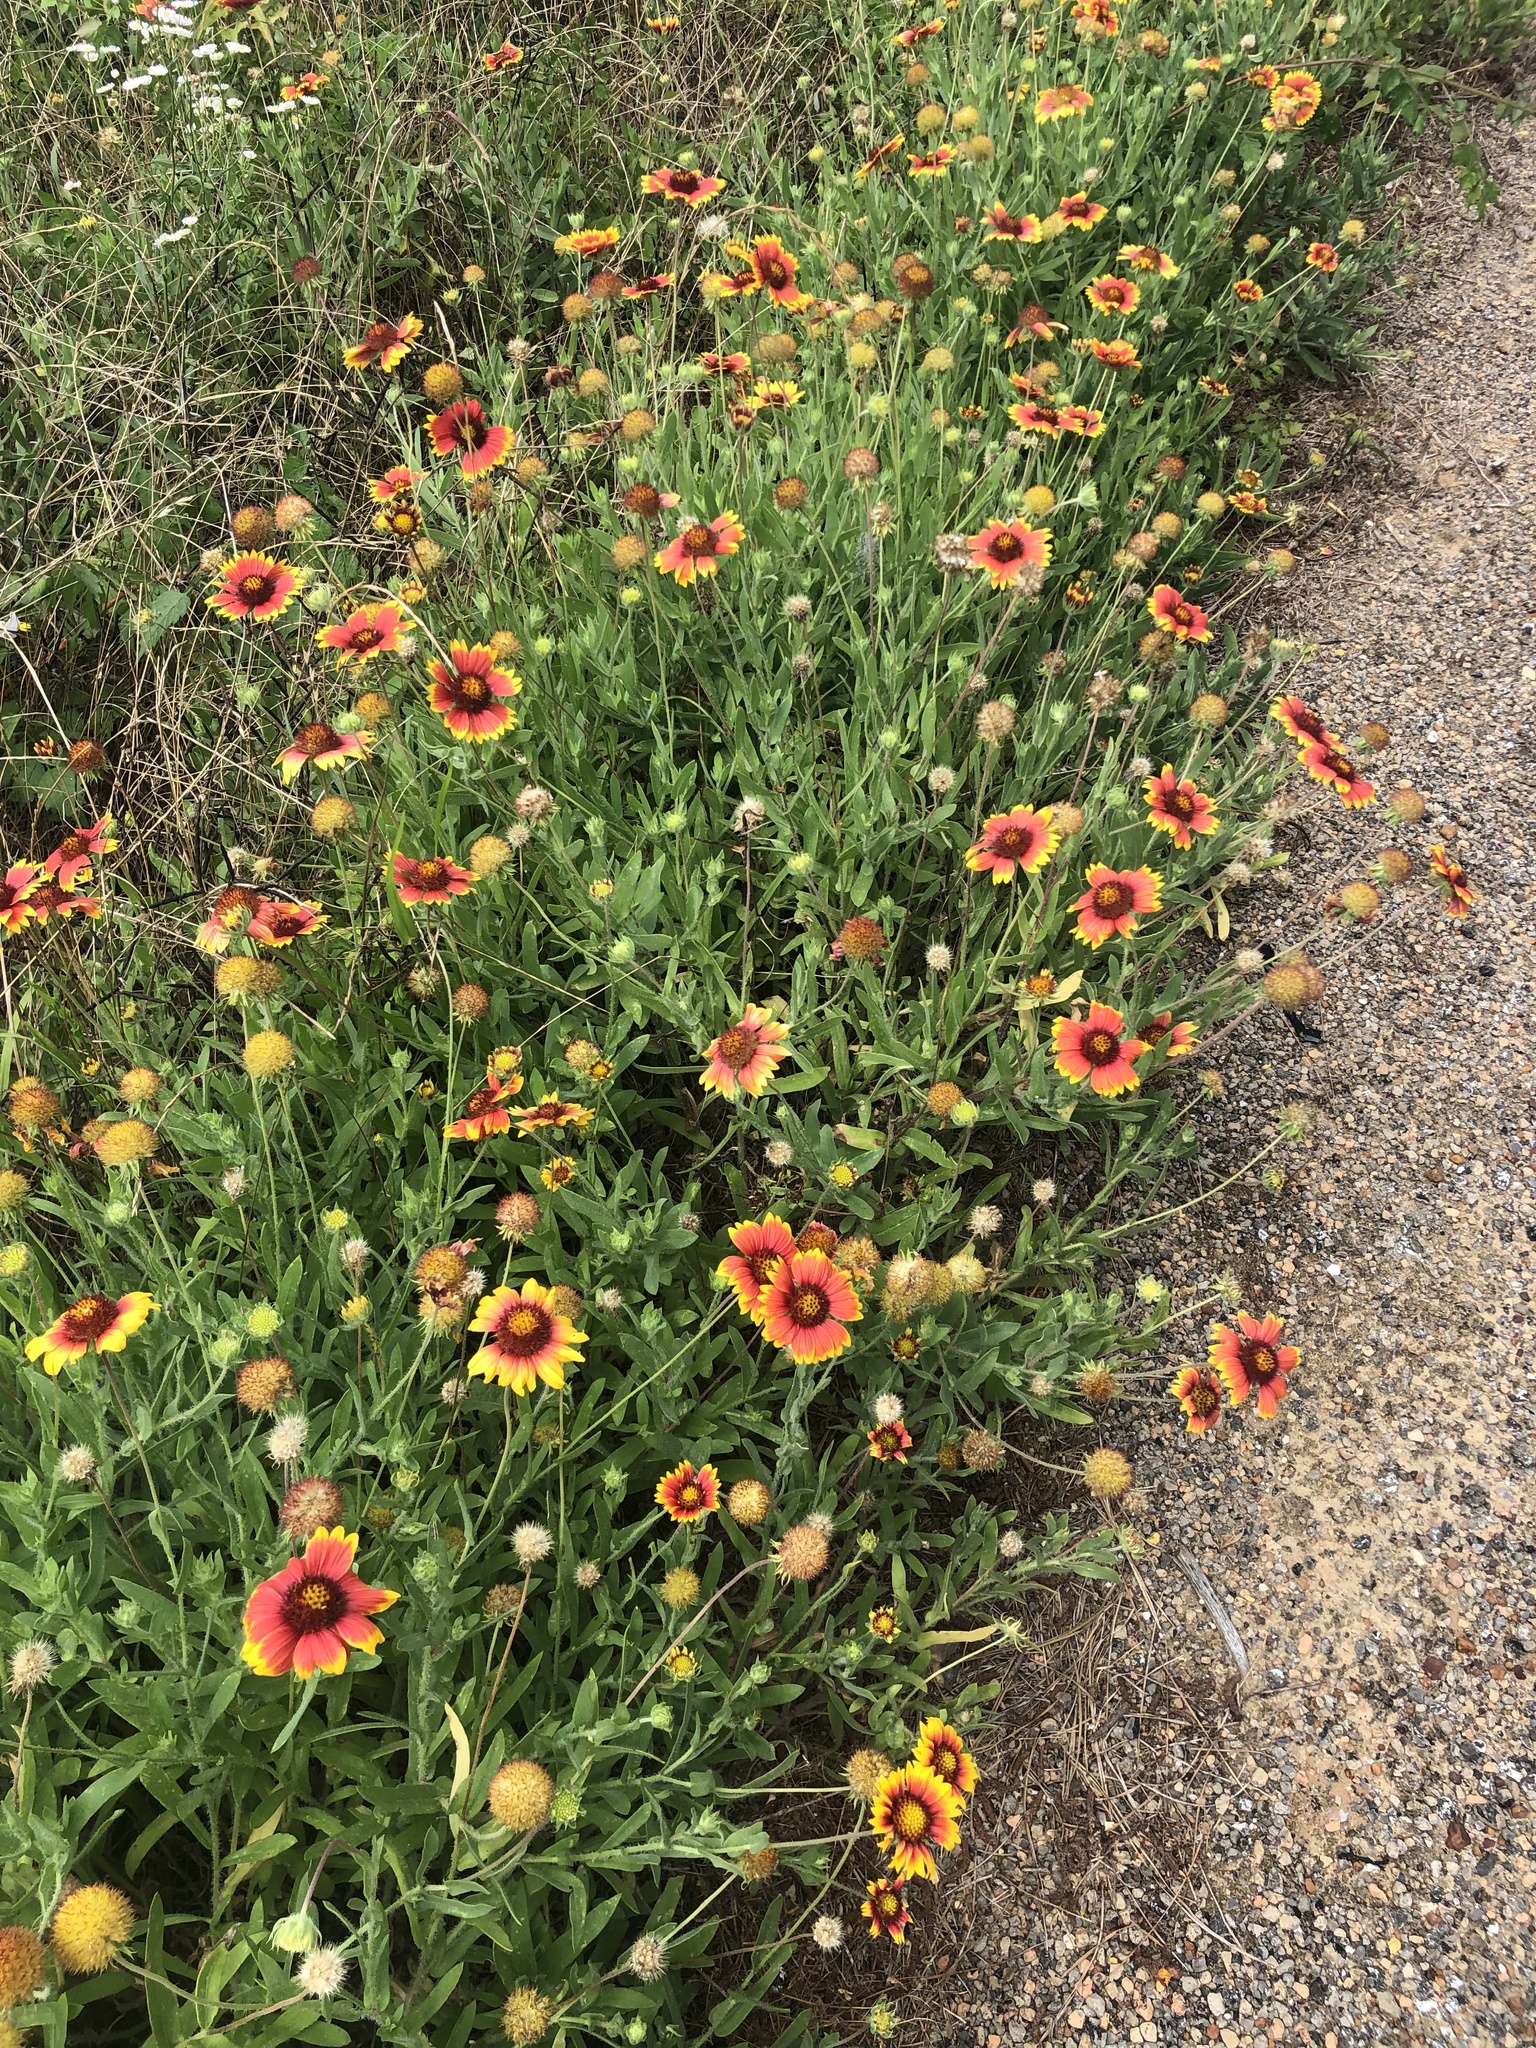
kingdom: Plantae
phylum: Tracheophyta
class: Magnoliopsida
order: Asterales
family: Asteraceae
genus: Gaillardia
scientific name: Gaillardia pulchella
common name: Firewheel
